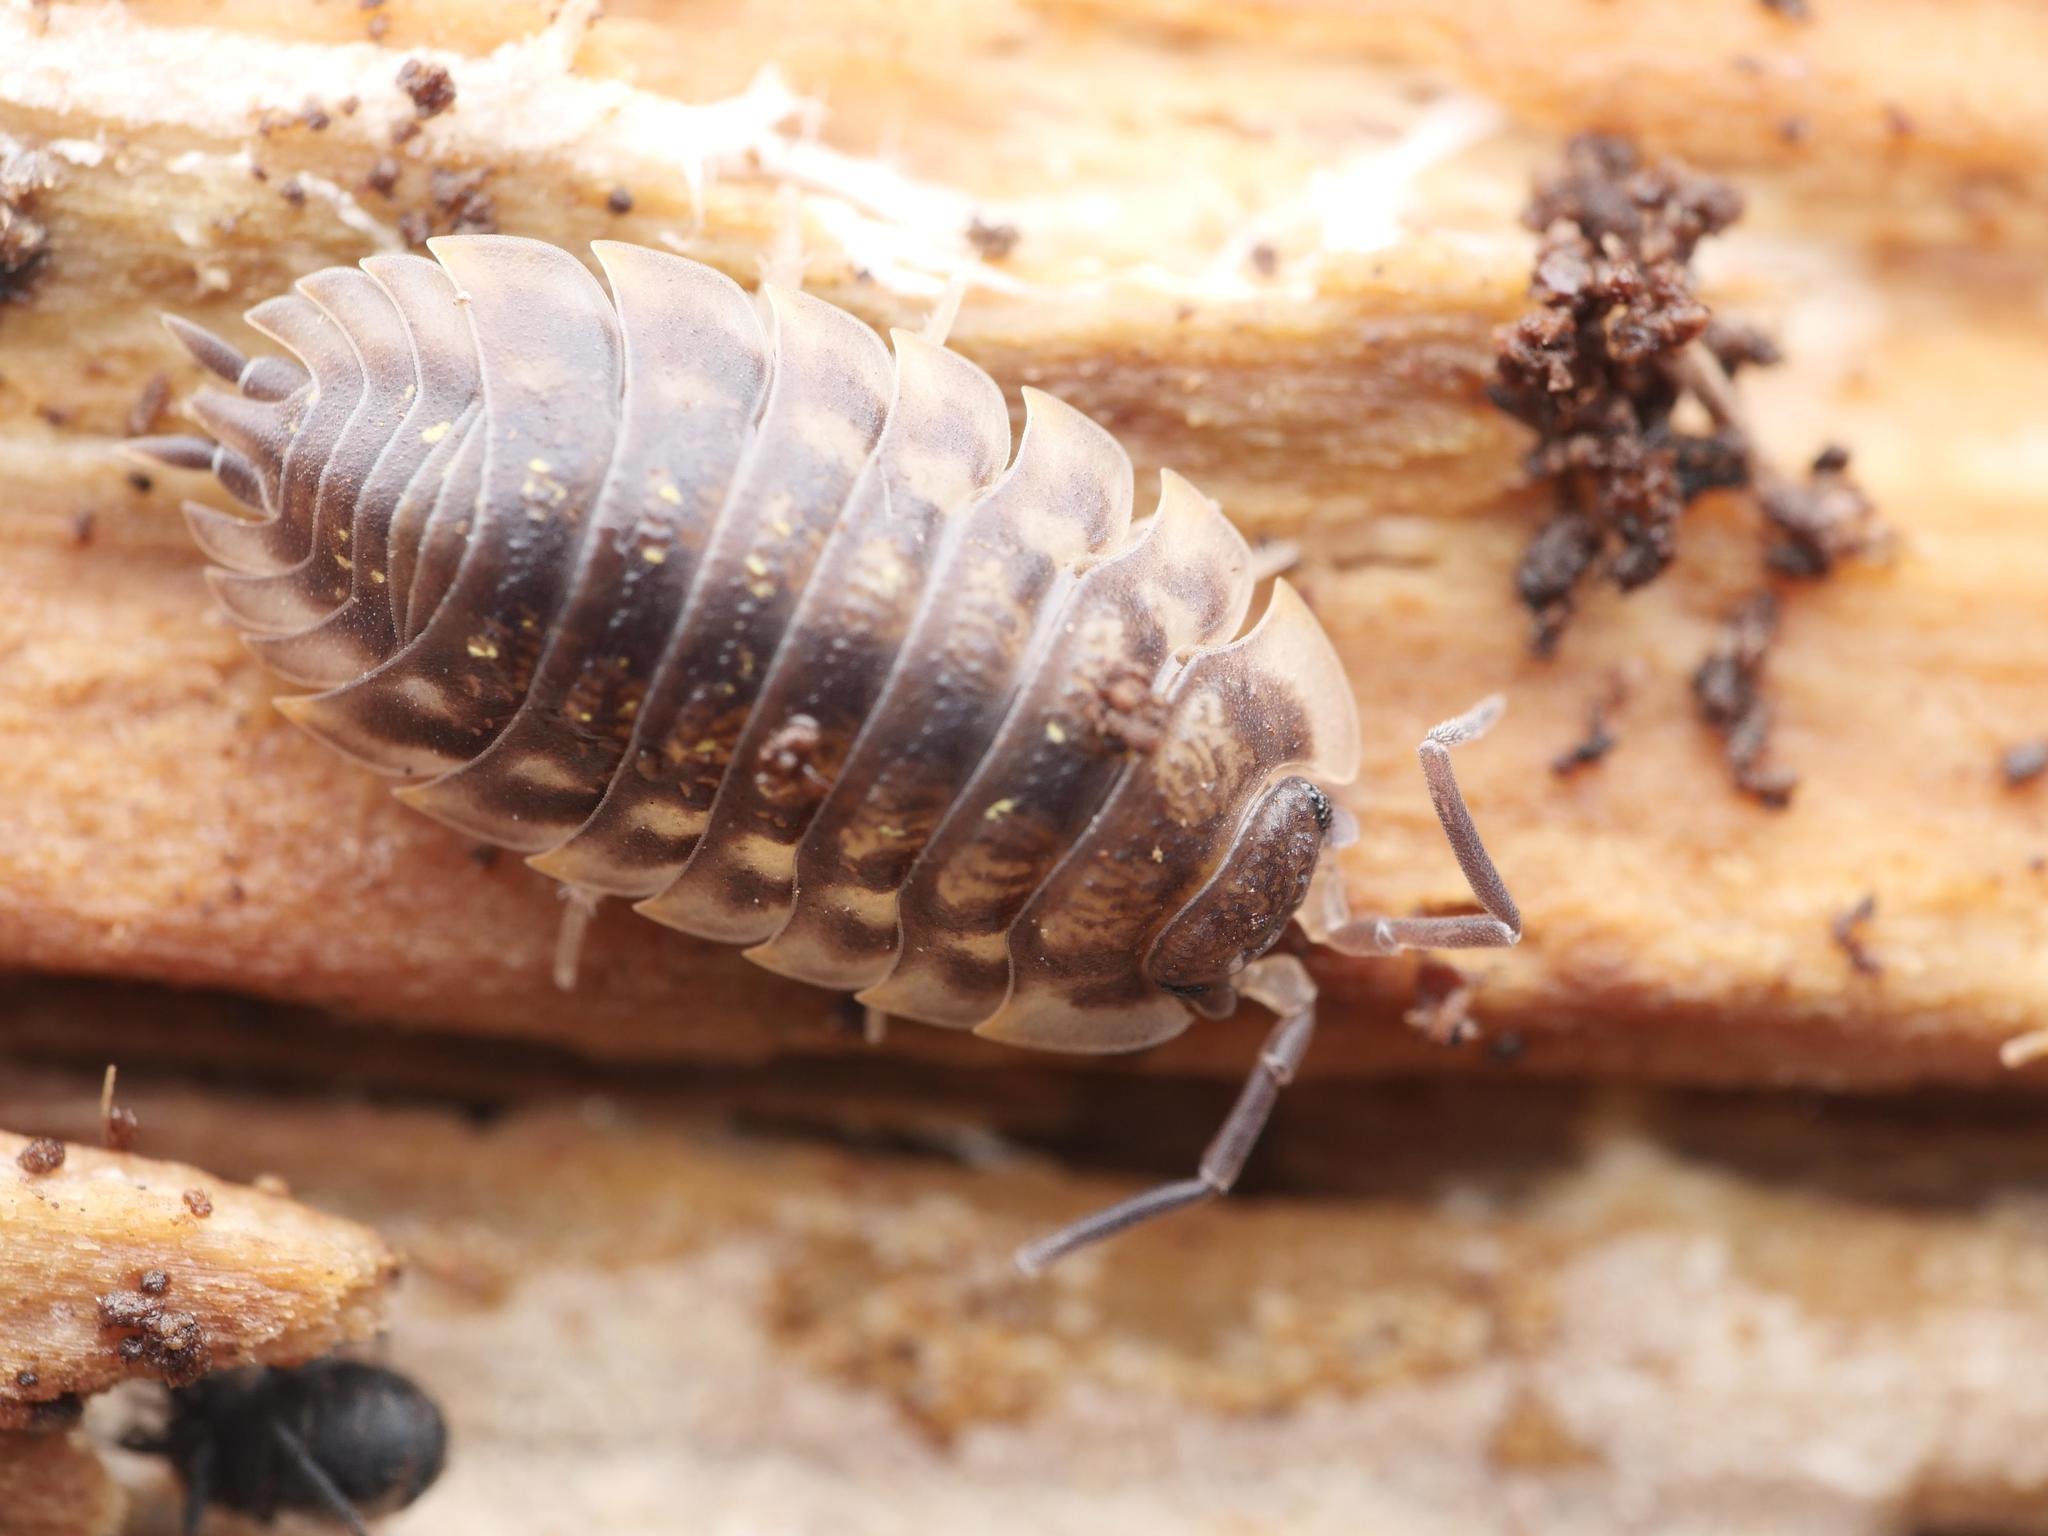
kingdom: Animalia
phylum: Arthropoda
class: Malacostraca
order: Isopoda
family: Oniscidae
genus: Oniscus
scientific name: Oniscus asellus
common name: Common shiny woodlouse
